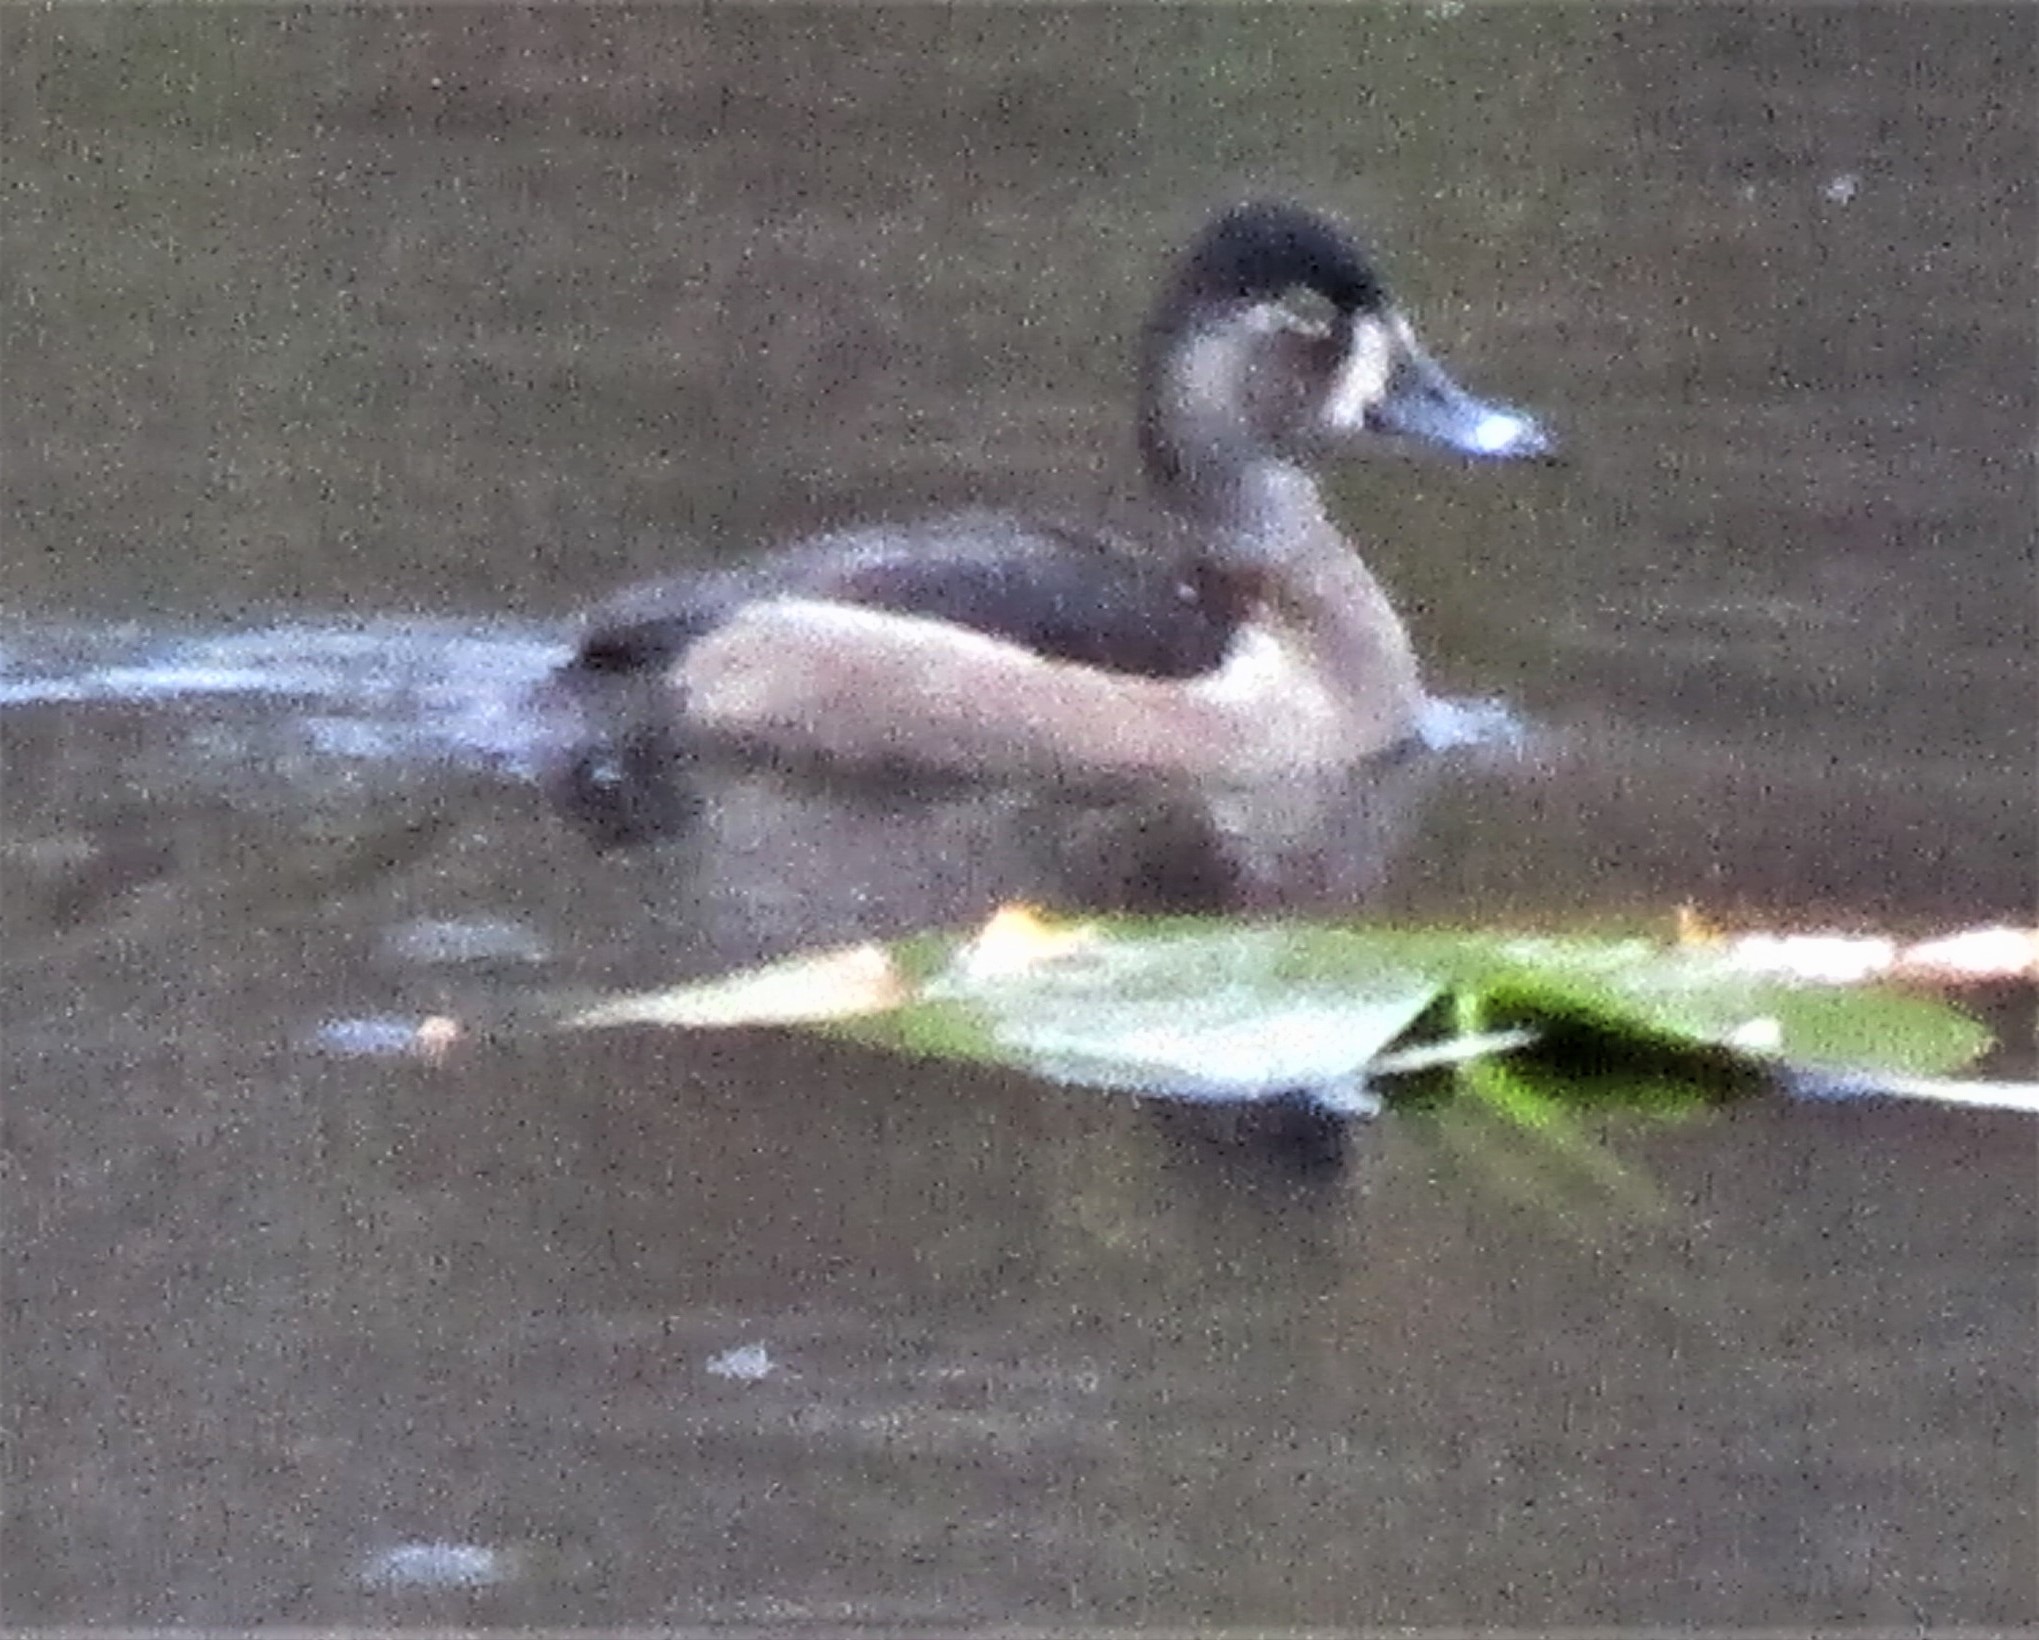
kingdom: Animalia
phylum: Chordata
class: Aves
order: Anseriformes
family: Anatidae
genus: Aythya
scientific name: Aythya collaris
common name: Ring-necked duck
